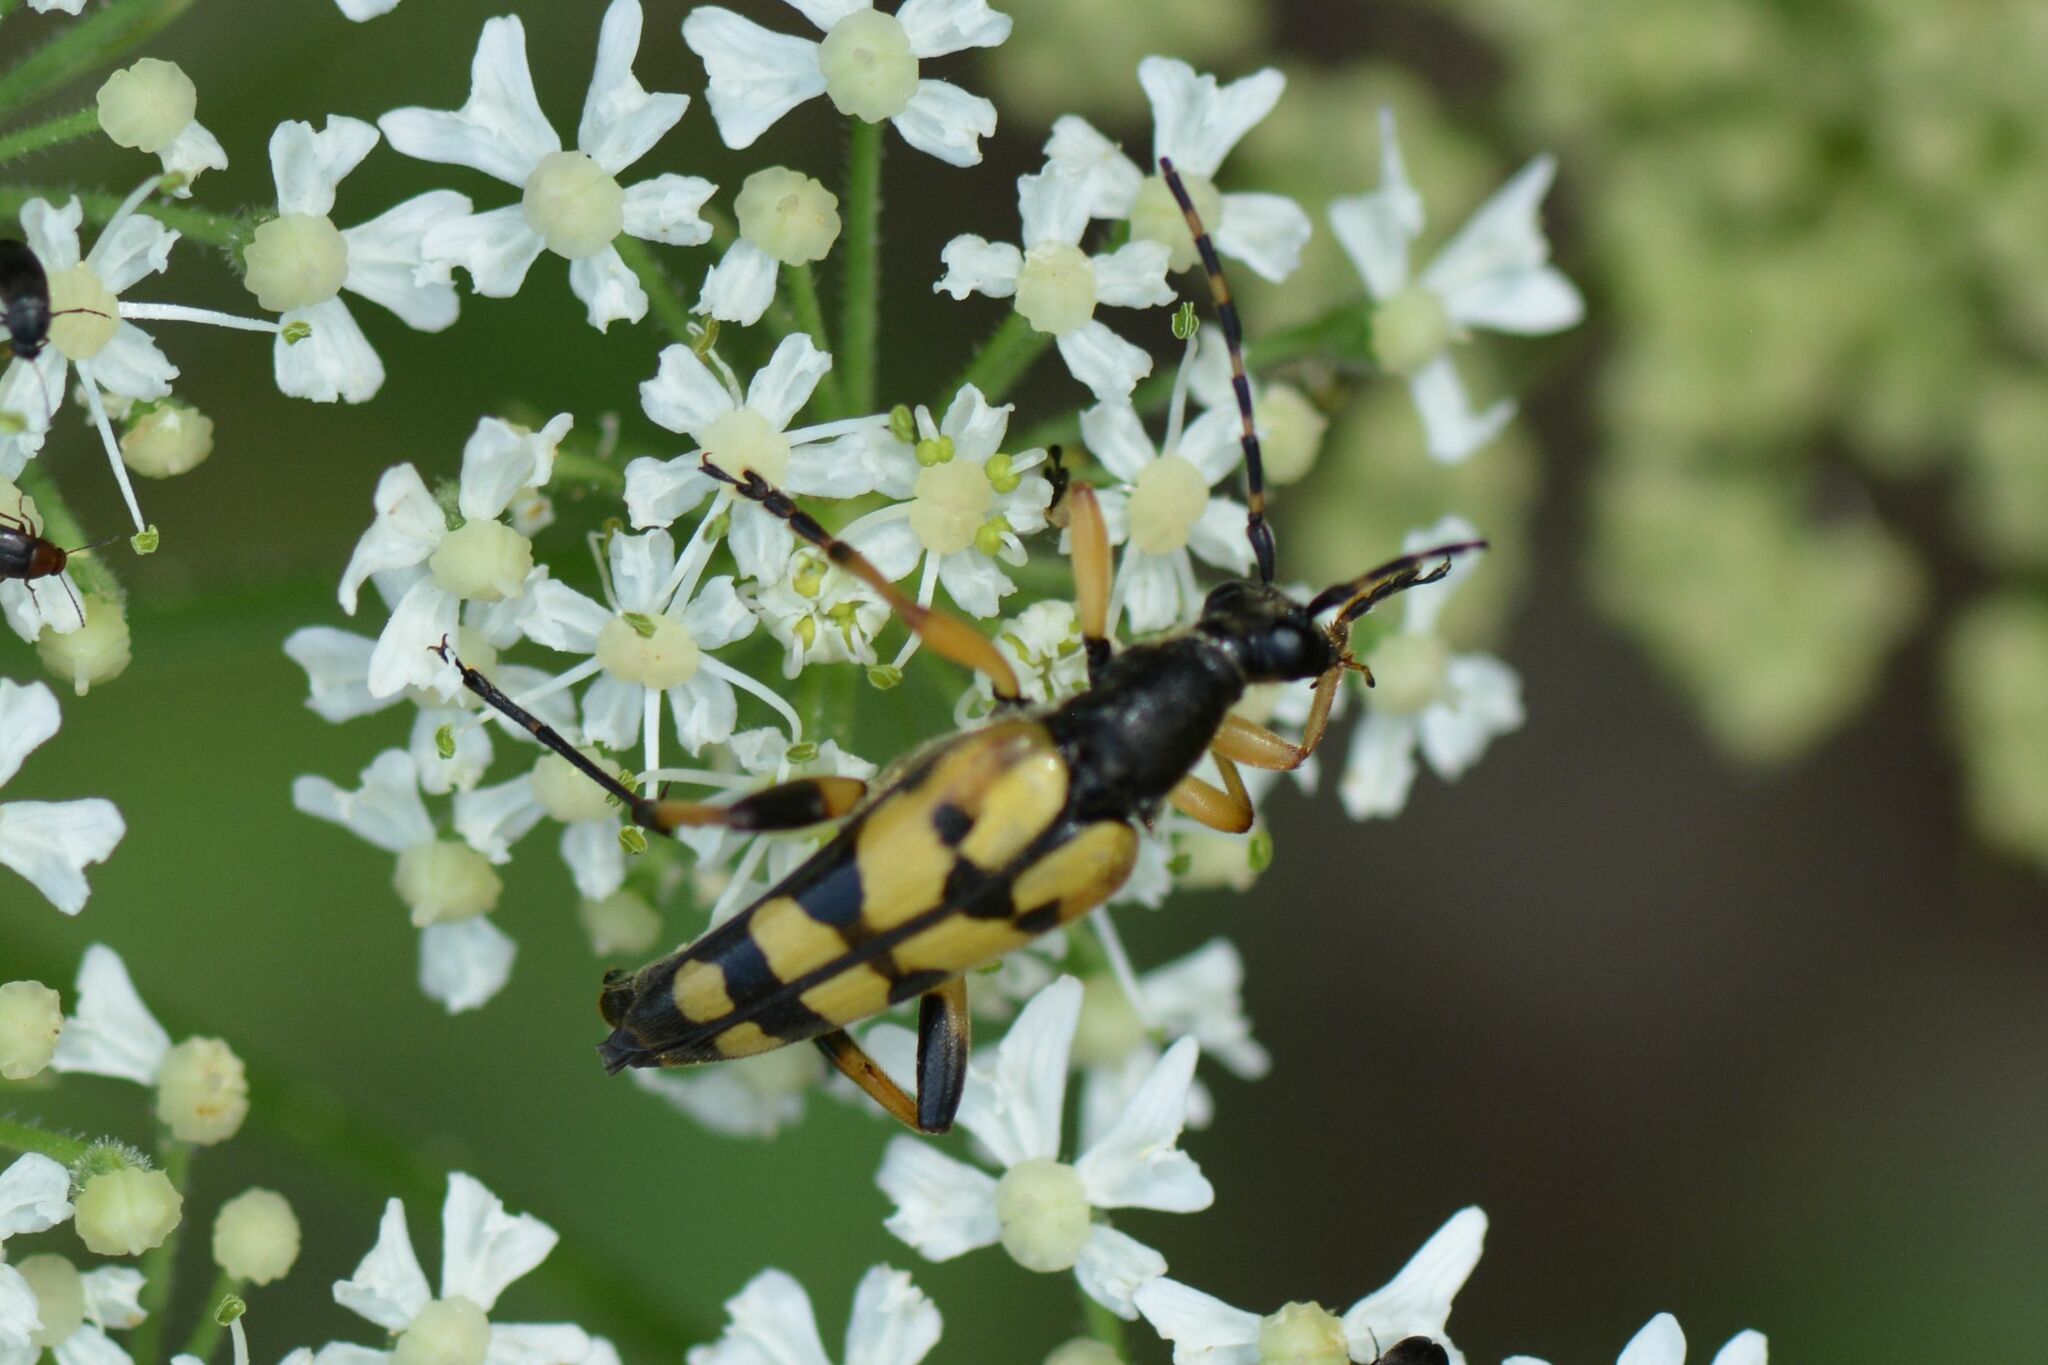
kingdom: Animalia
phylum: Arthropoda
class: Insecta
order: Coleoptera
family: Cerambycidae
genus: Rutpela
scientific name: Rutpela maculata
